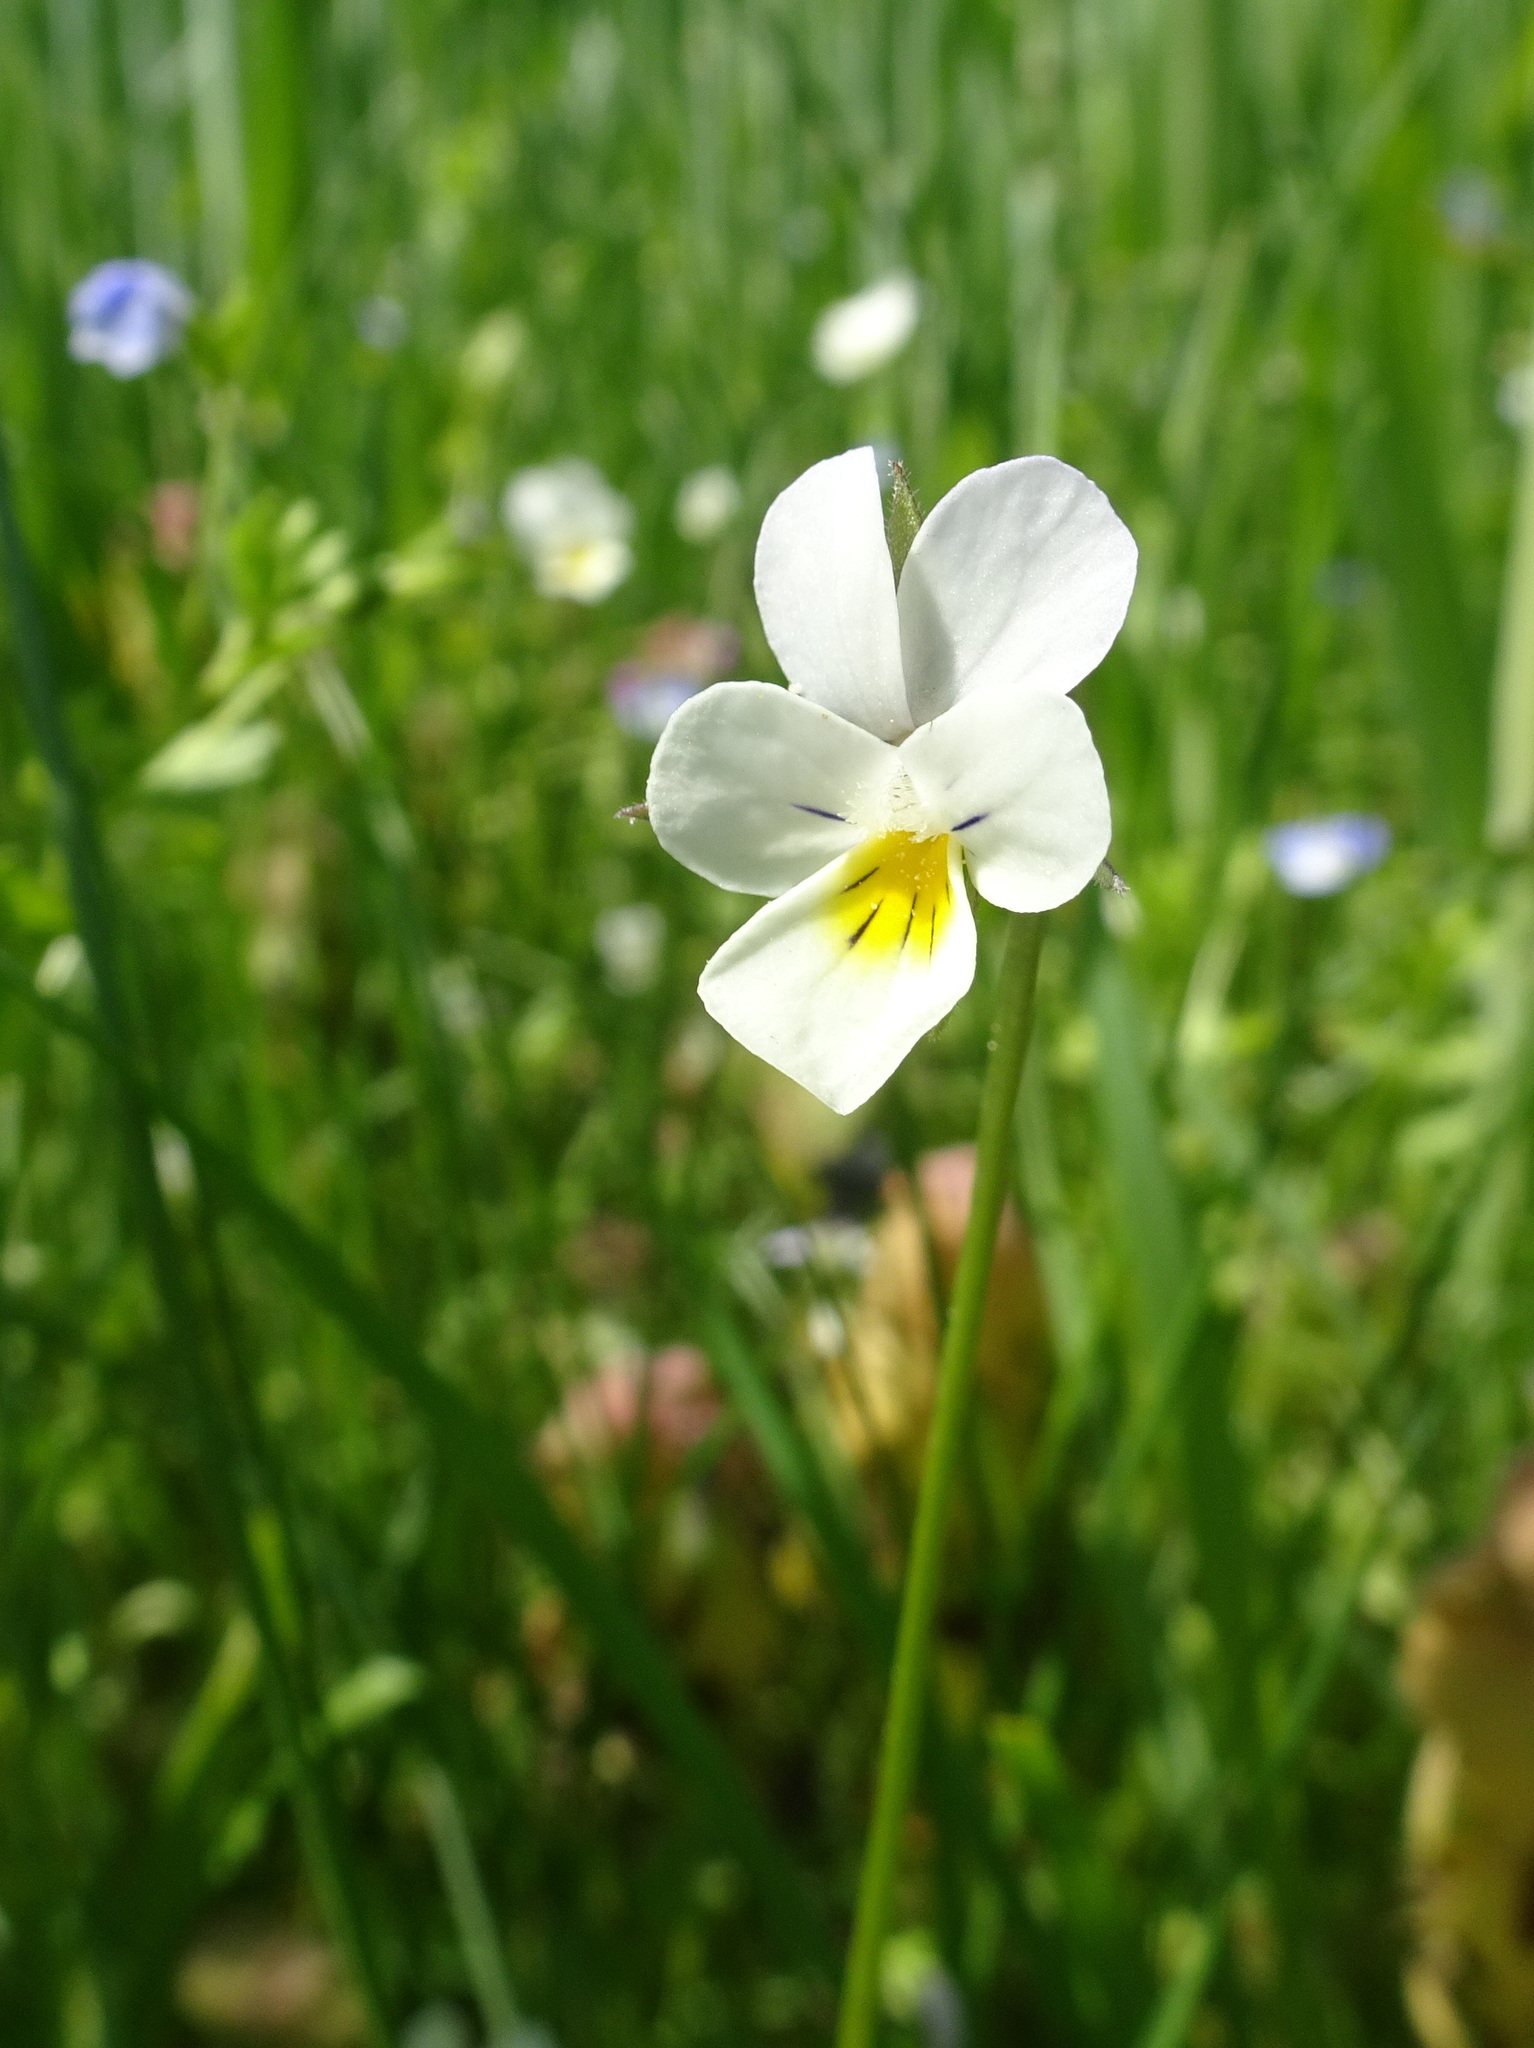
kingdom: Plantae
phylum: Tracheophyta
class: Magnoliopsida
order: Malpighiales
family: Violaceae
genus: Viola
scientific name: Viola arvensis
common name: Field pansy
